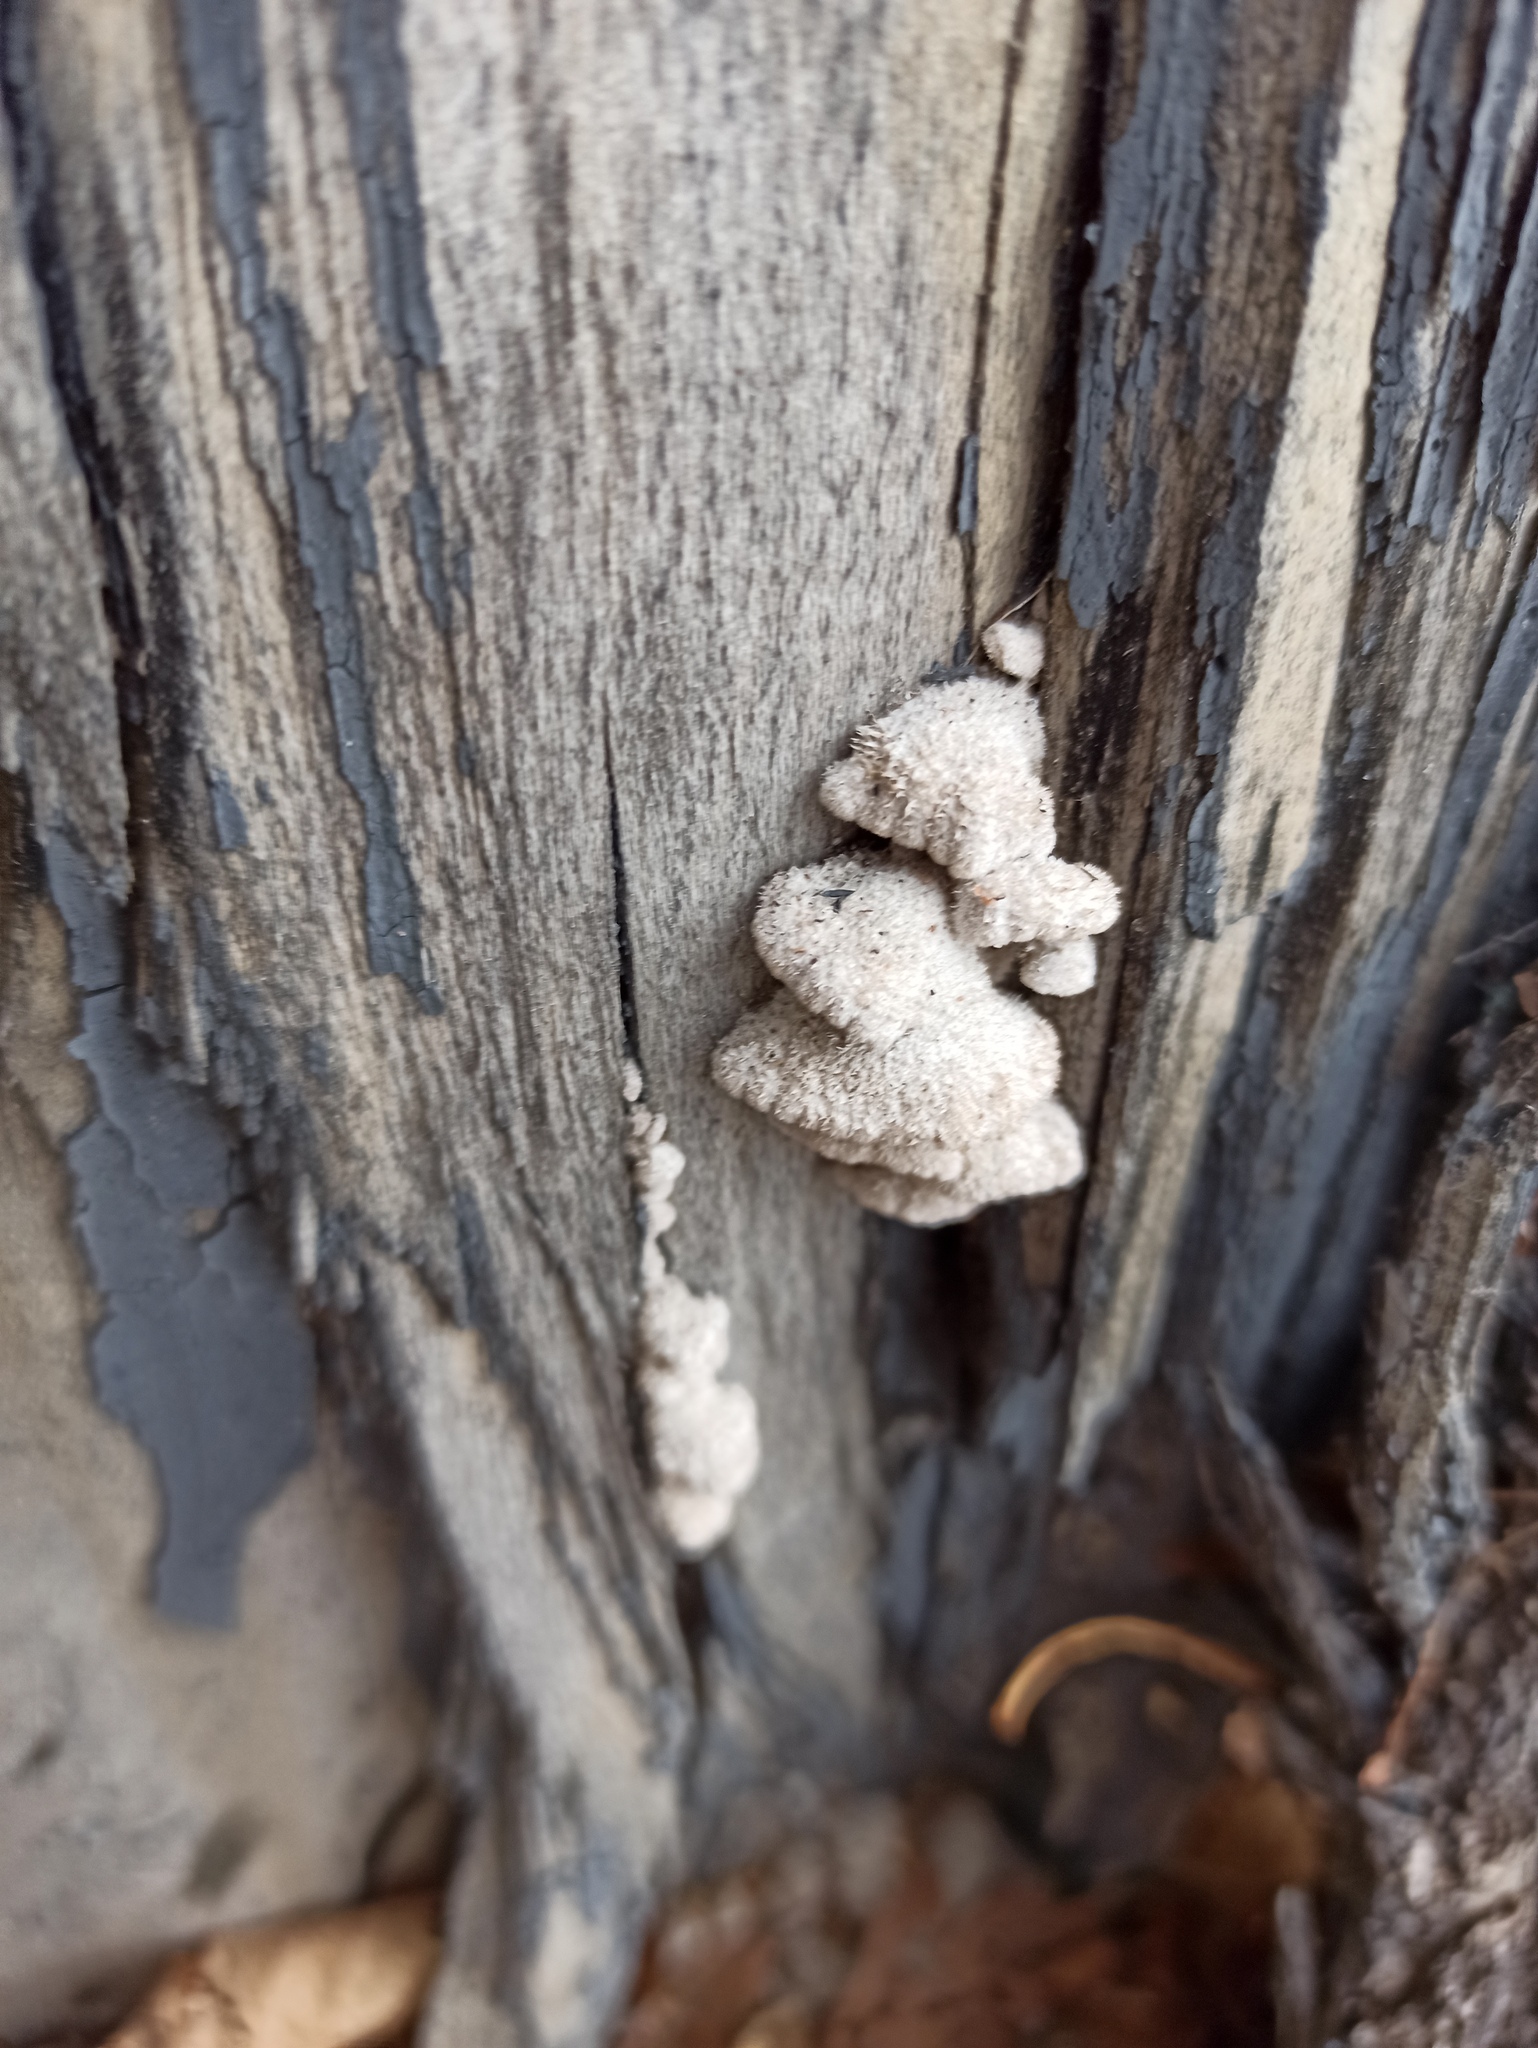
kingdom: Fungi
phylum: Basidiomycota
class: Agaricomycetes
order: Agaricales
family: Schizophyllaceae
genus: Schizophyllum
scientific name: Schizophyllum commune
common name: Common porecrust
